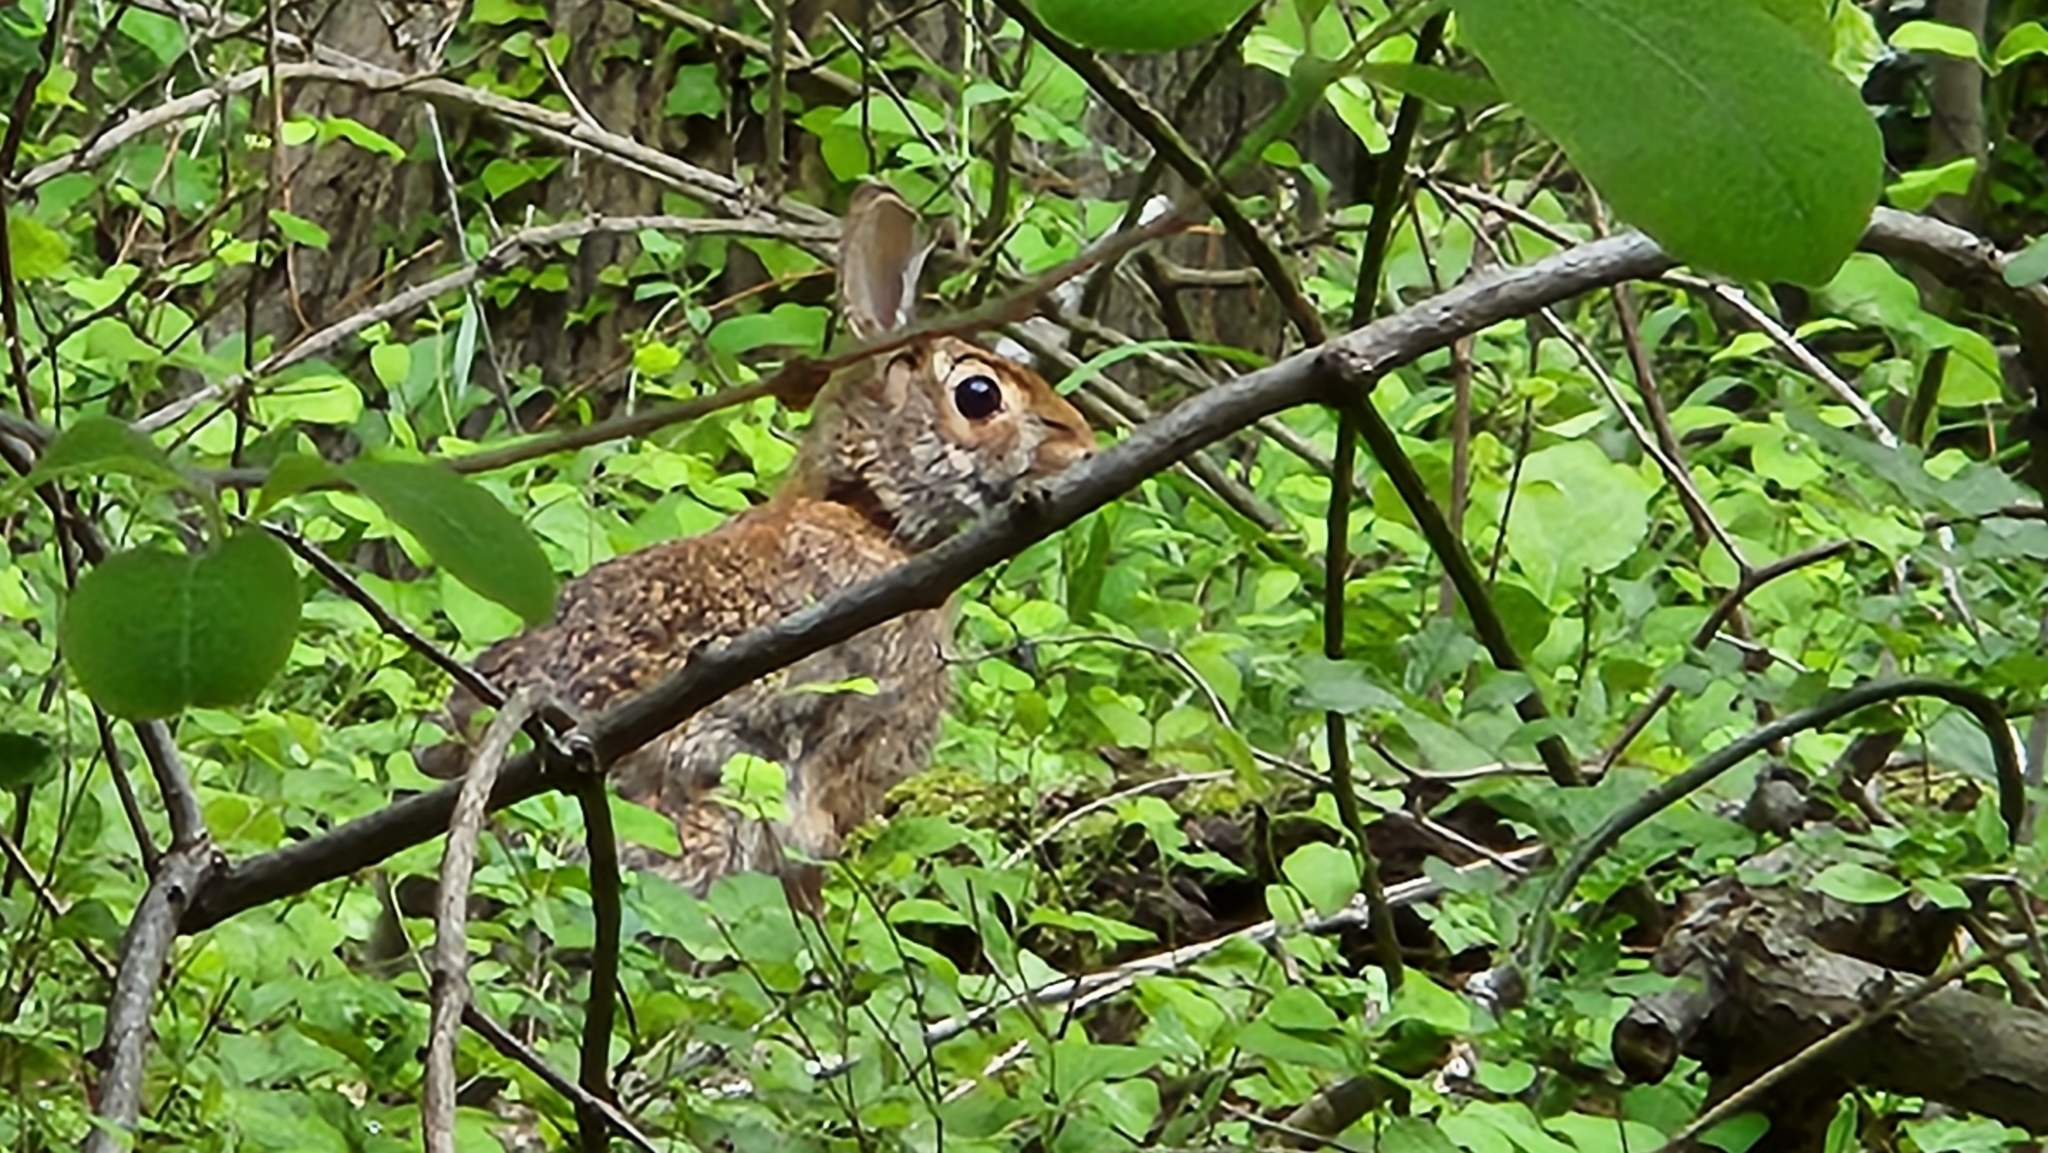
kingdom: Animalia
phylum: Chordata
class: Mammalia
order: Lagomorpha
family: Leporidae
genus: Sylvilagus
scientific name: Sylvilagus floridanus
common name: Eastern cottontail
